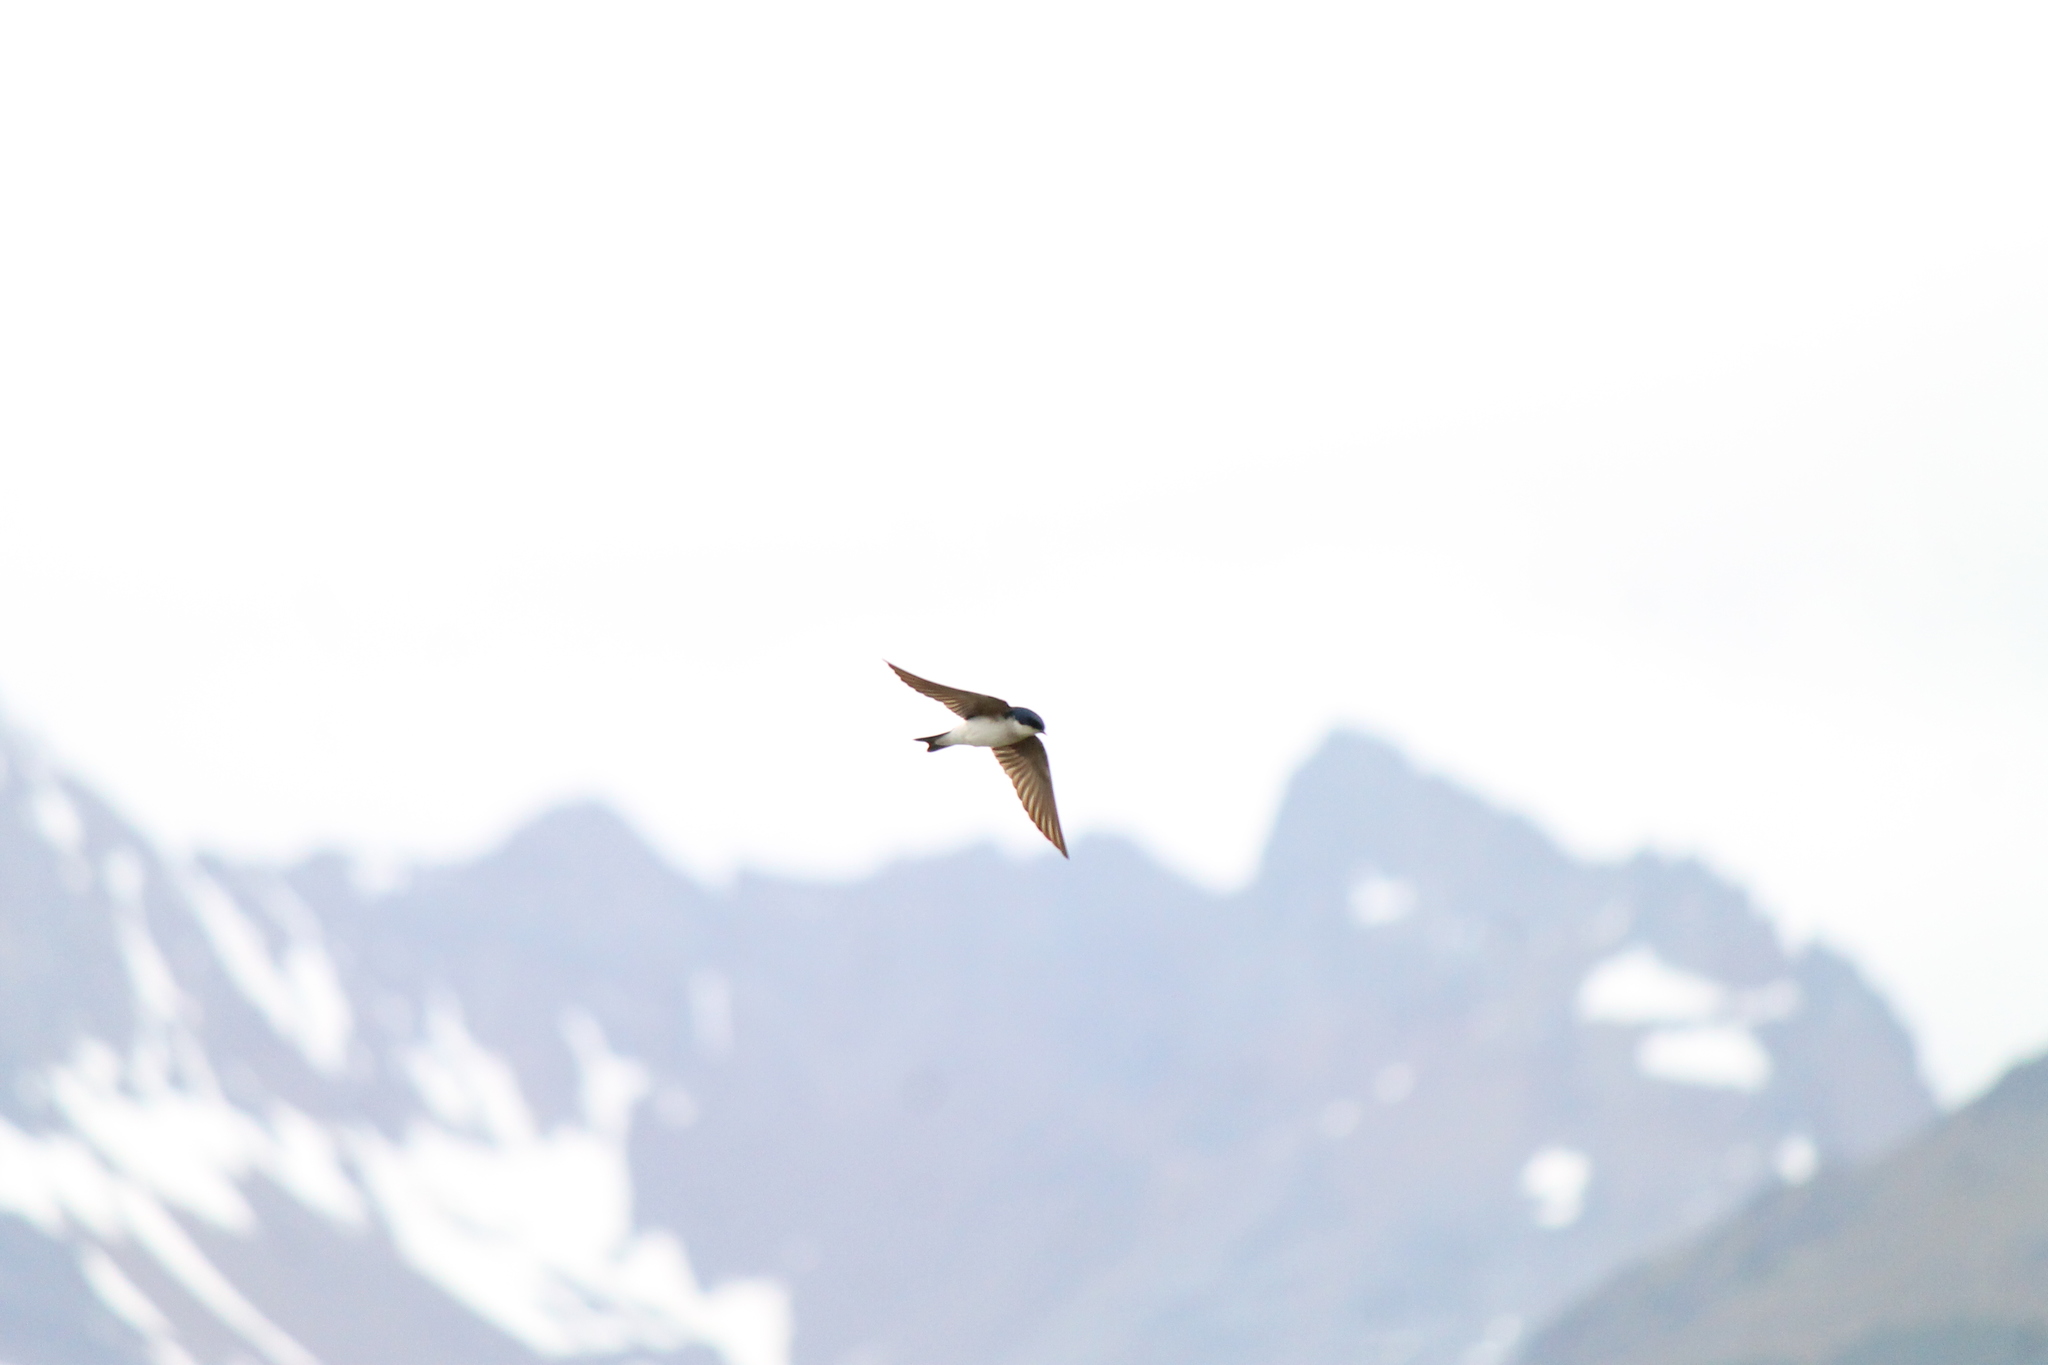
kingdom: Animalia
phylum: Chordata
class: Aves
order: Passeriformes
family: Hirundinidae
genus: Tachycineta
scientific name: Tachycineta leucopyga
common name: Chilean swallow
